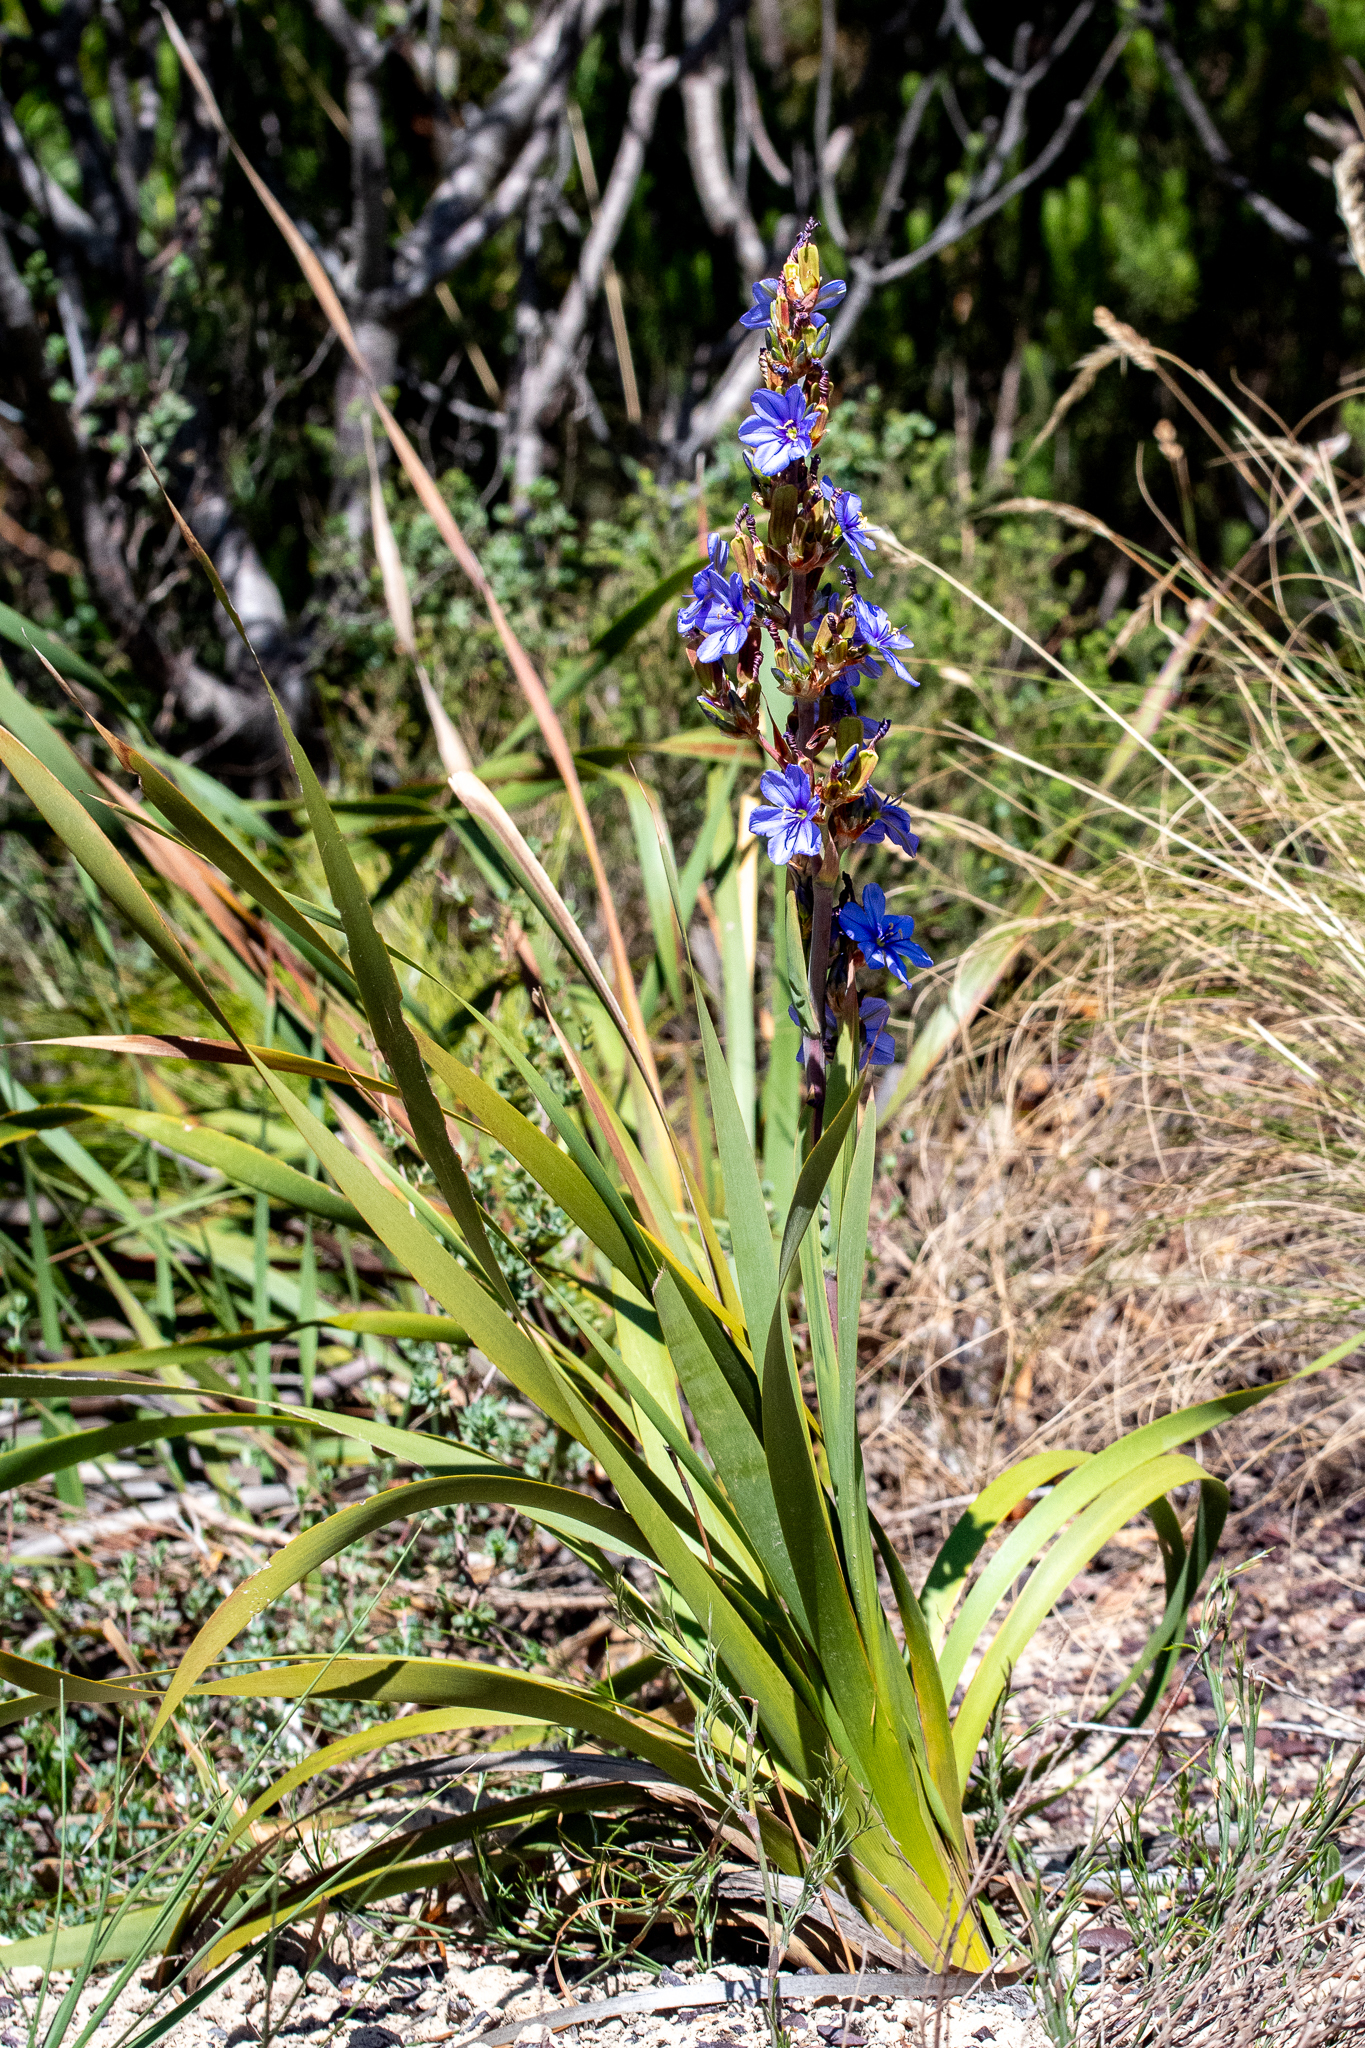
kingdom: Plantae
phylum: Tracheophyta
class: Liliopsida
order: Asparagales
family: Iridaceae
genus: Aristea
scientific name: Aristea bakeri
